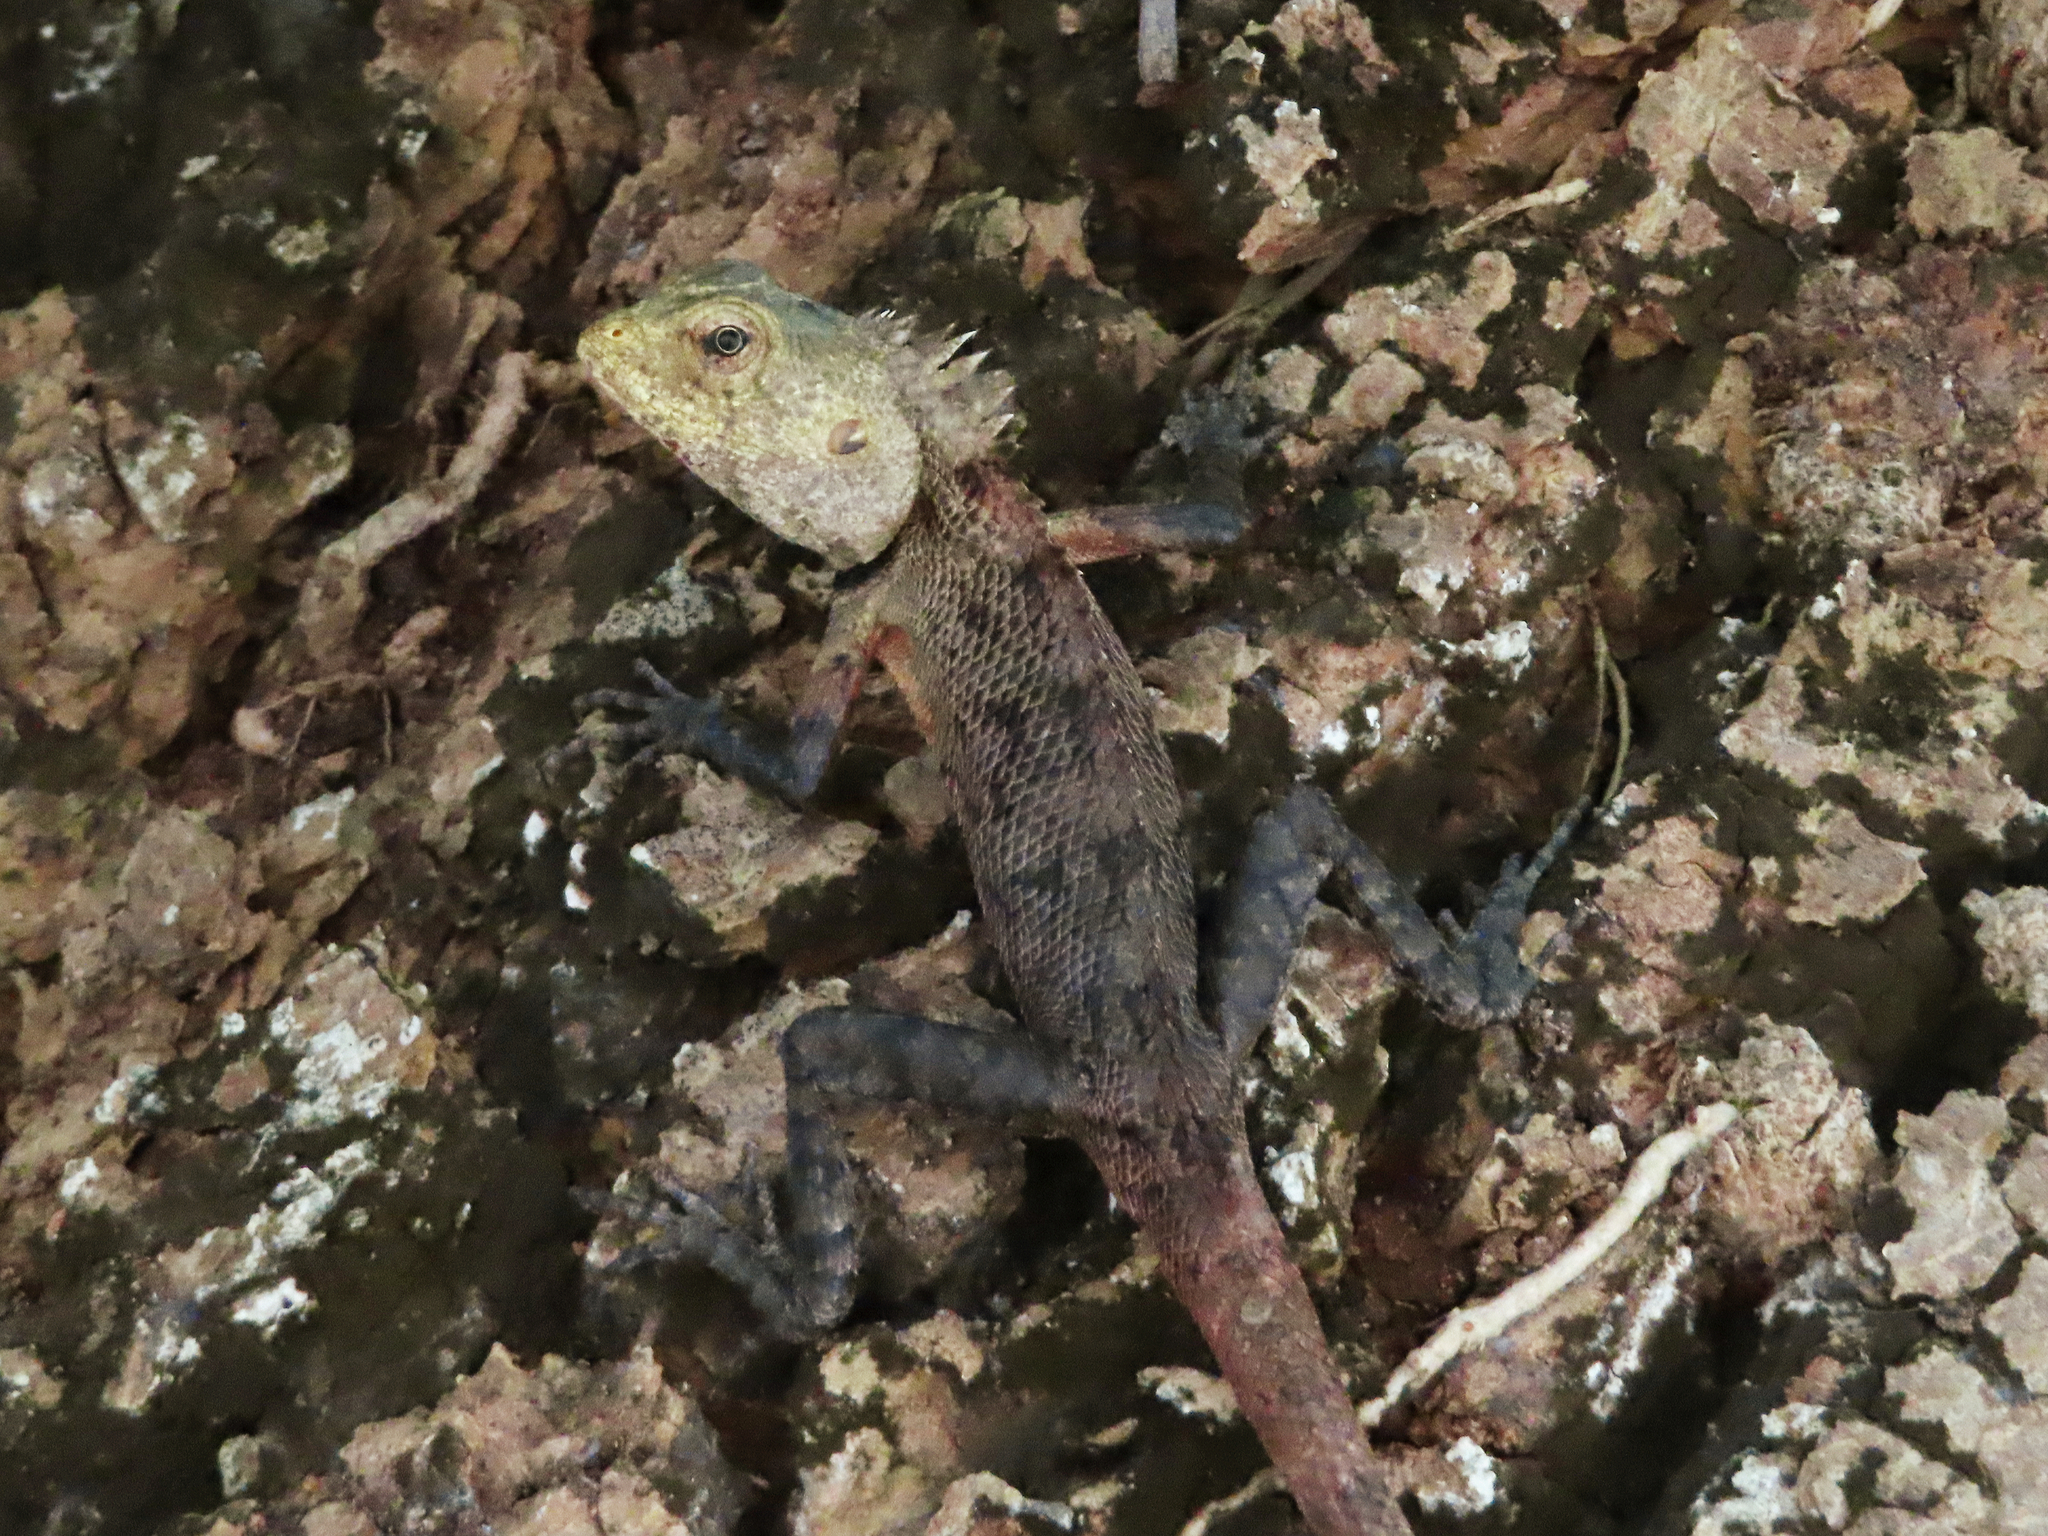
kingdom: Animalia
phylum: Chordata
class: Squamata
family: Agamidae
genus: Calotes
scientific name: Calotes versicolor
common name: Oriental garden lizard
